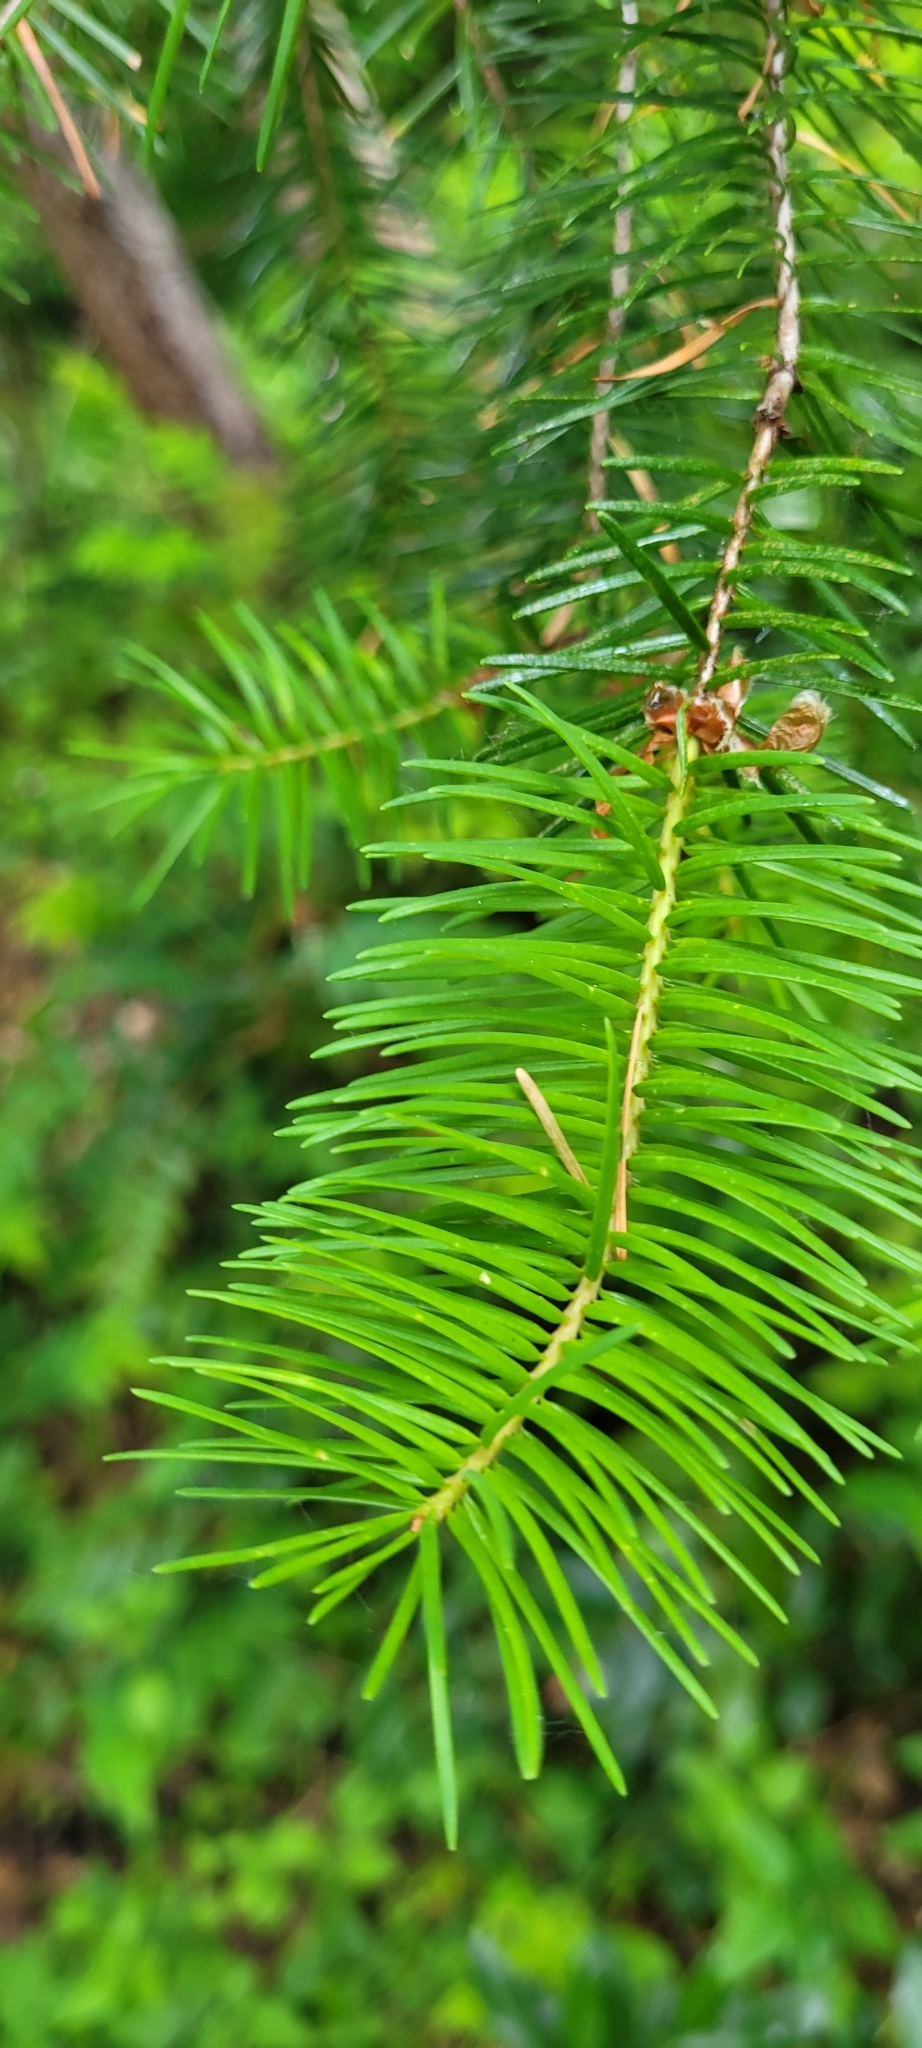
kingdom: Plantae
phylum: Tracheophyta
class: Pinopsida
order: Pinales
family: Pinaceae
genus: Pseudotsuga
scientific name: Pseudotsuga menziesii
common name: Douglas fir
